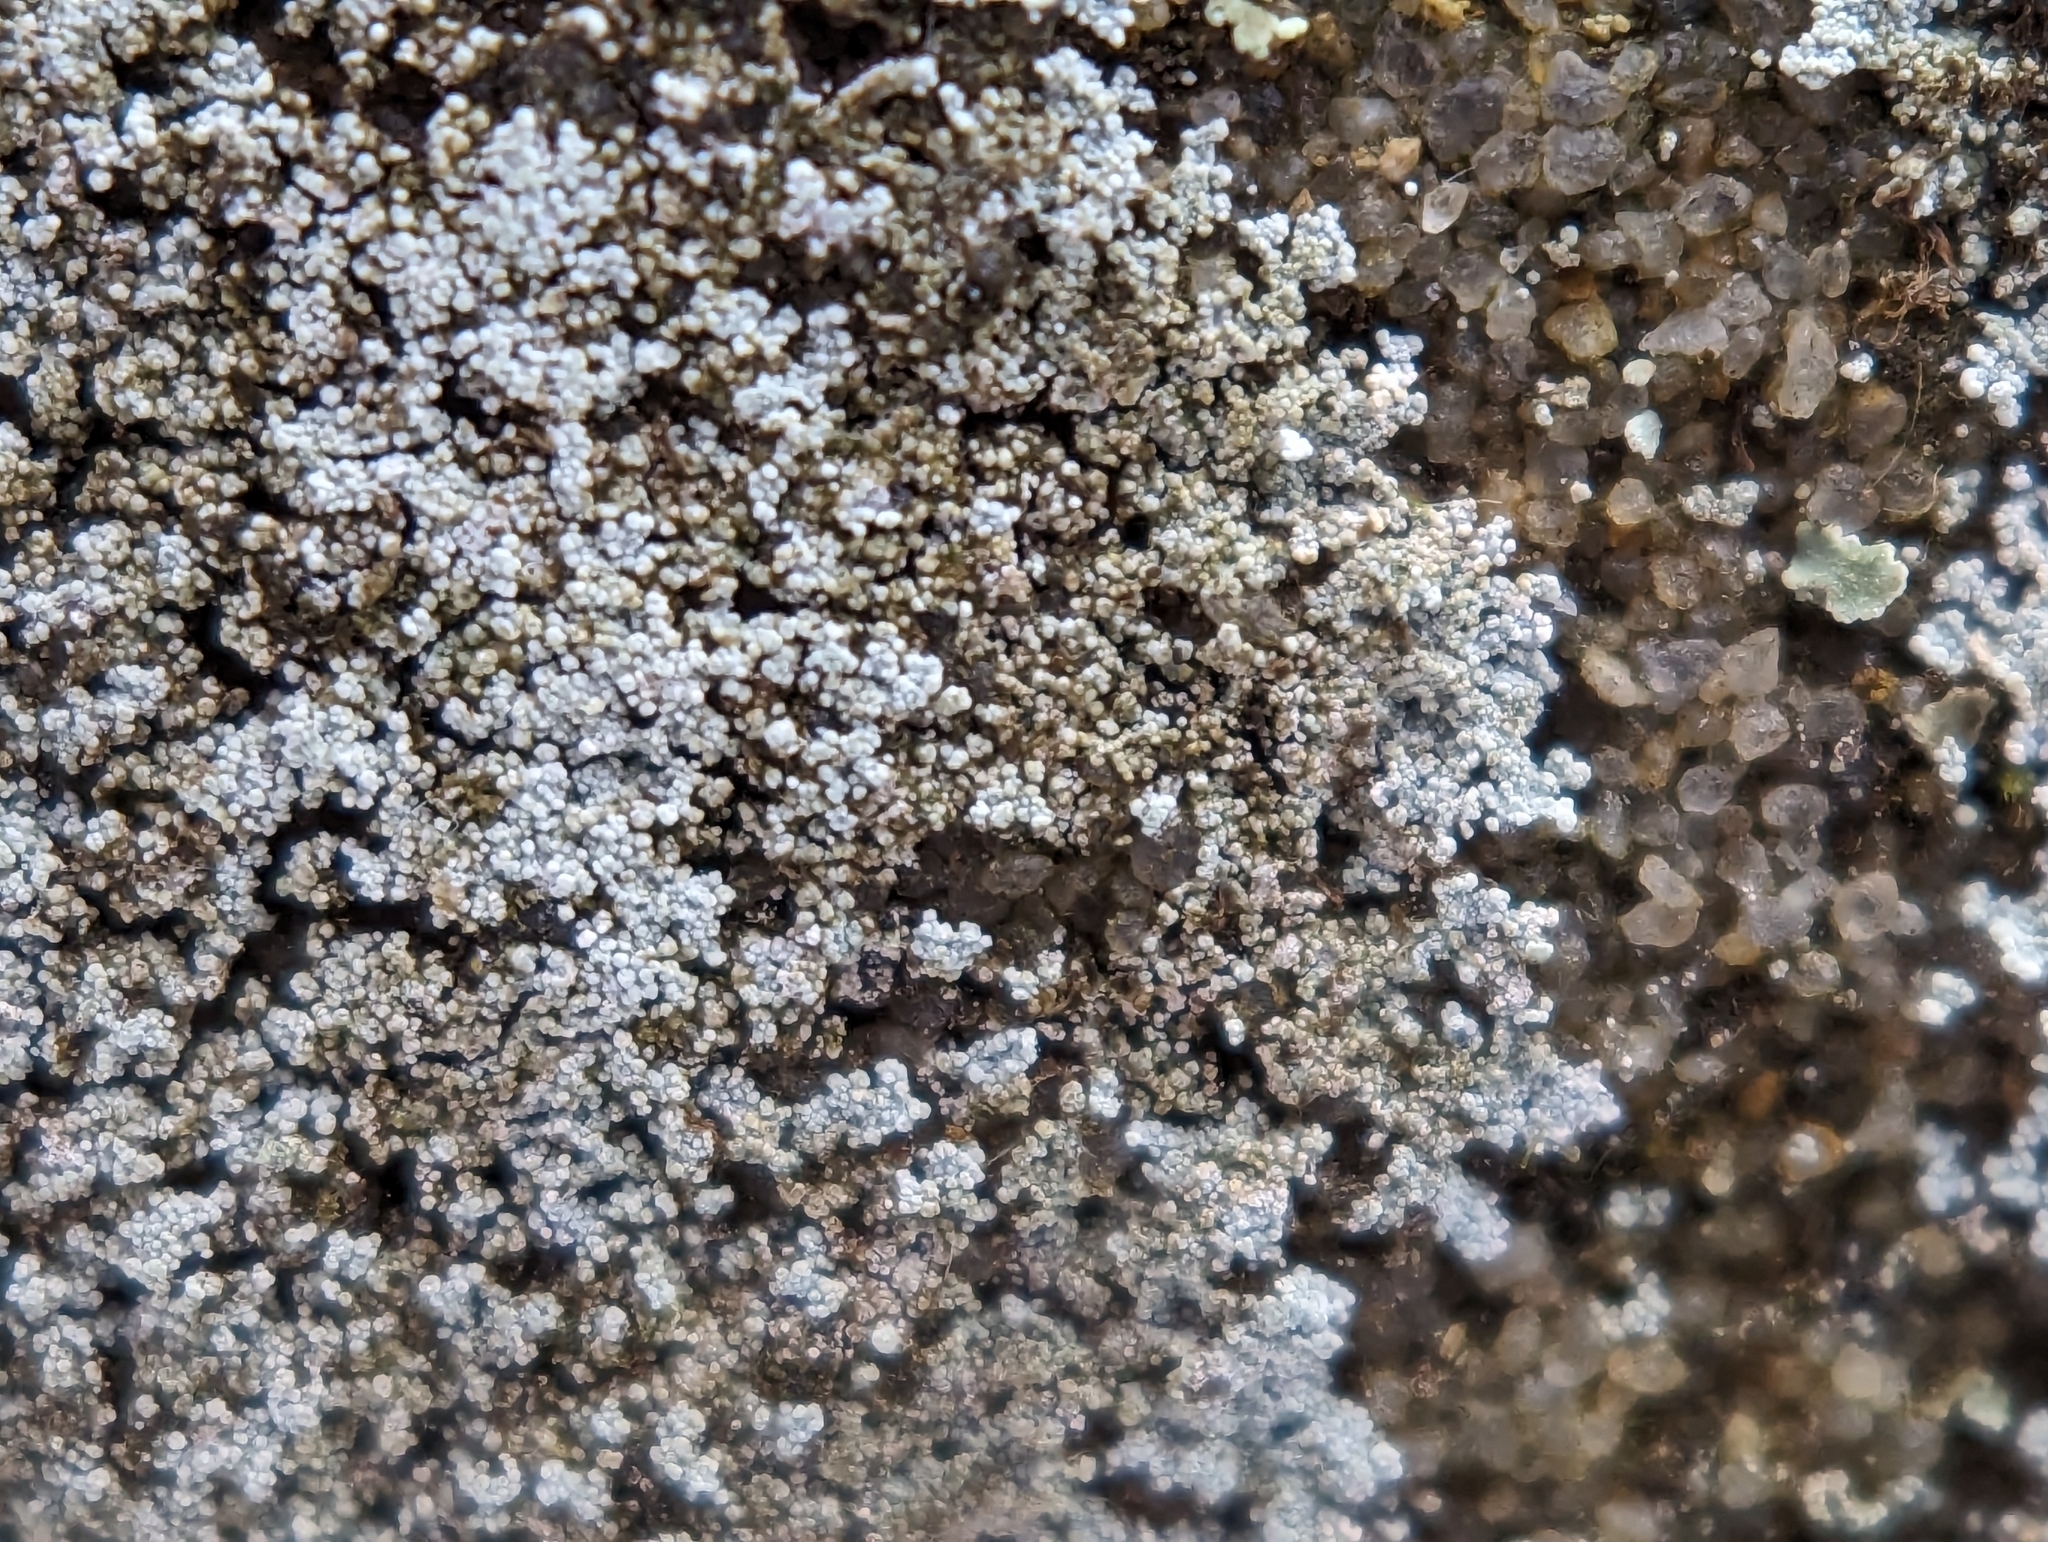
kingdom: Fungi
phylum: Ascomycota
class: Lecanoromycetes
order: Lecanorales
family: Stereocaulaceae
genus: Lepraria
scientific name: Lepraria neglecta
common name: Zoned dust lichen
